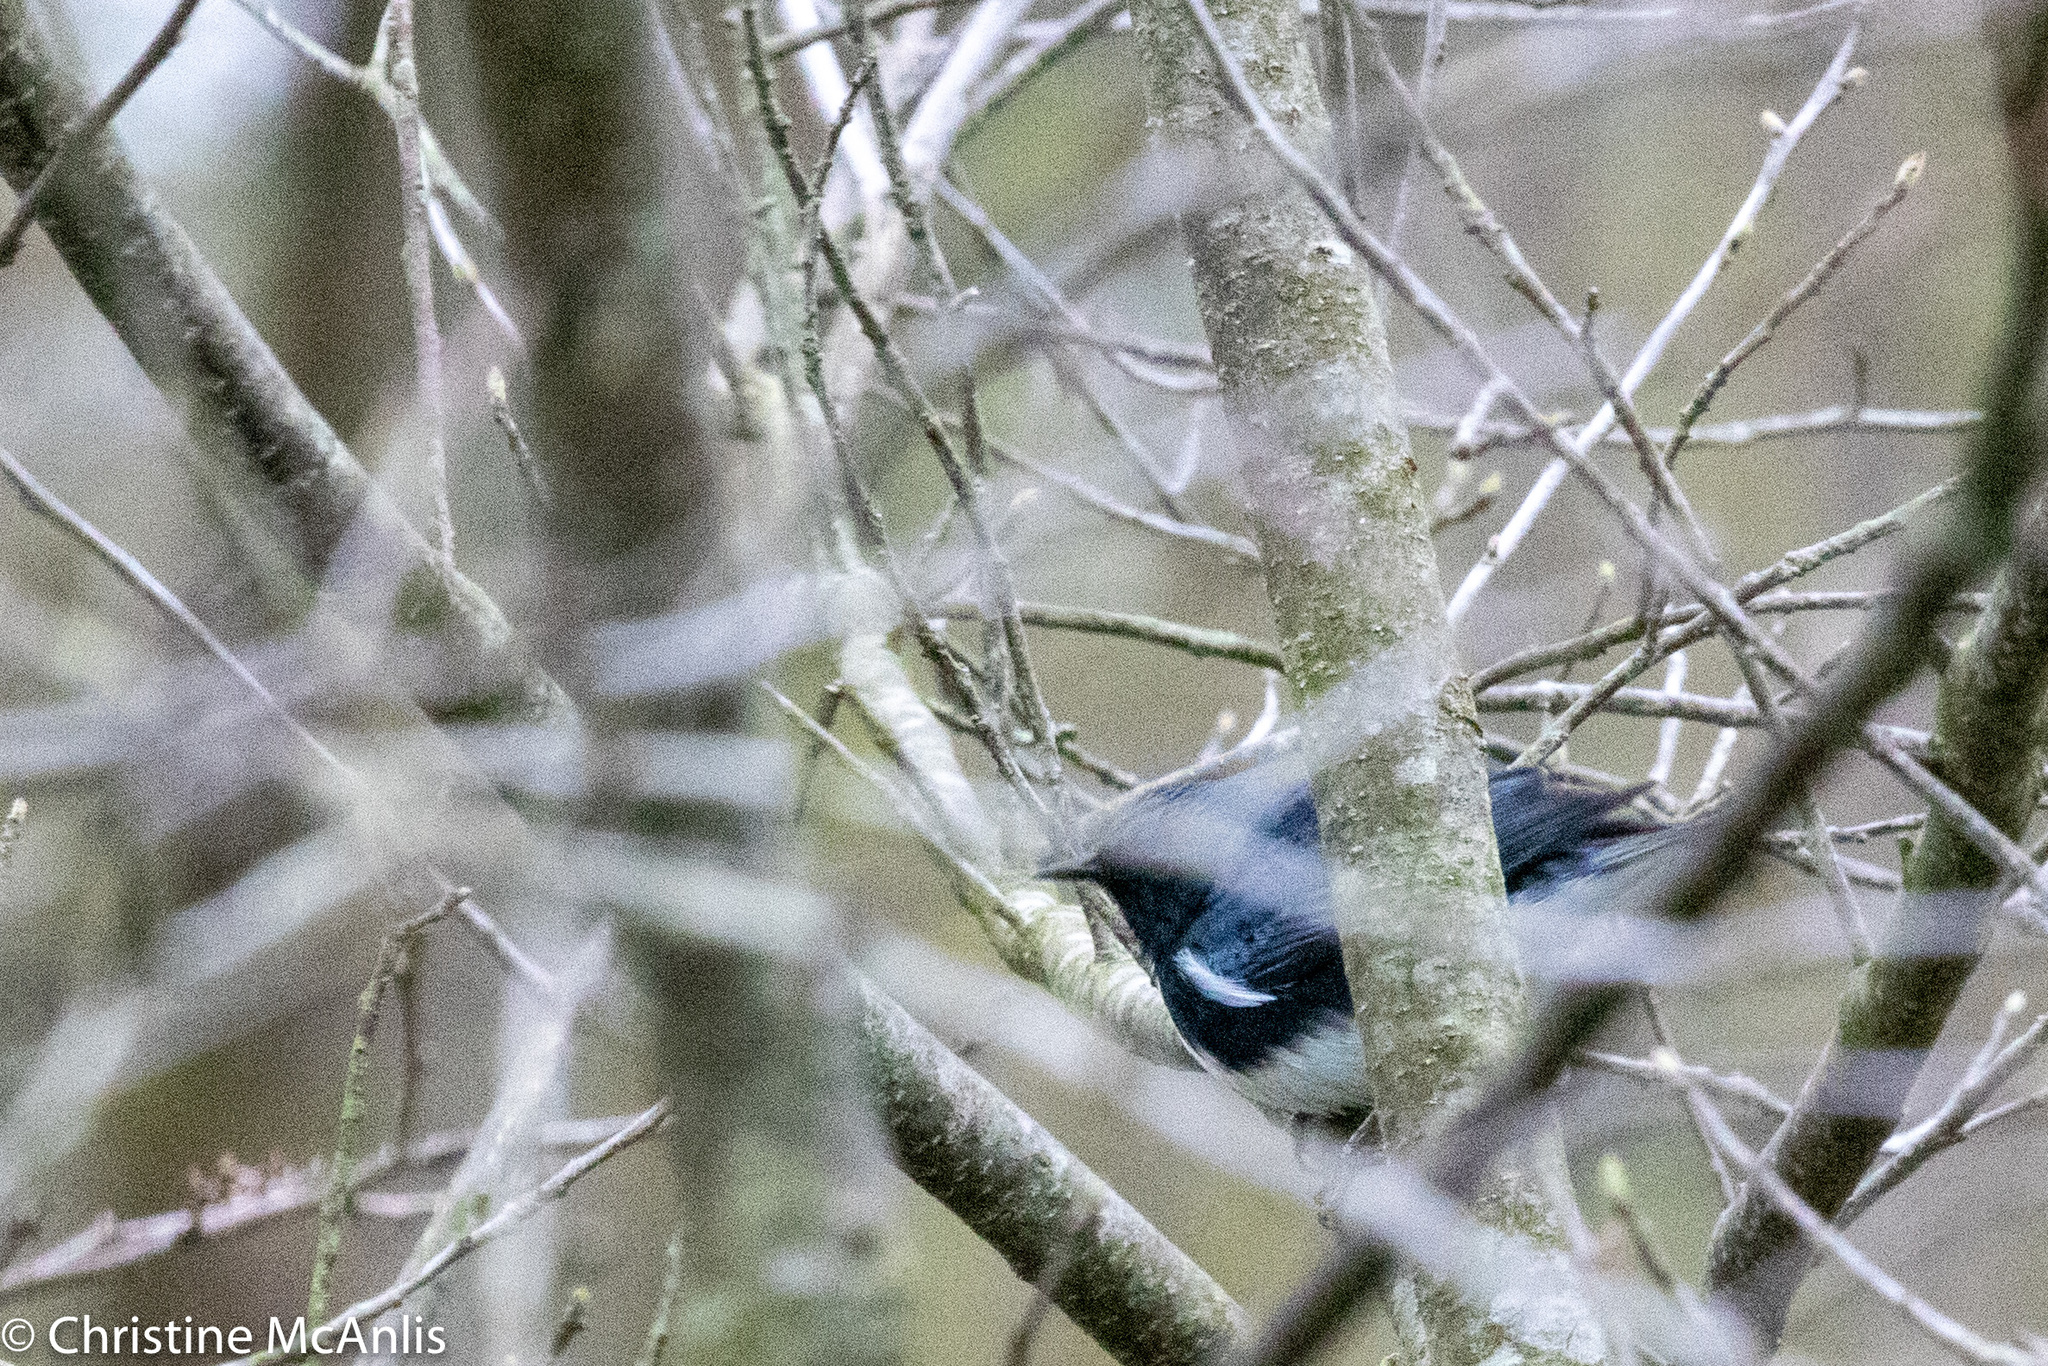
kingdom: Animalia
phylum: Chordata
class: Aves
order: Passeriformes
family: Parulidae
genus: Setophaga
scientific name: Setophaga caerulescens
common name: Black-throated blue warbler
